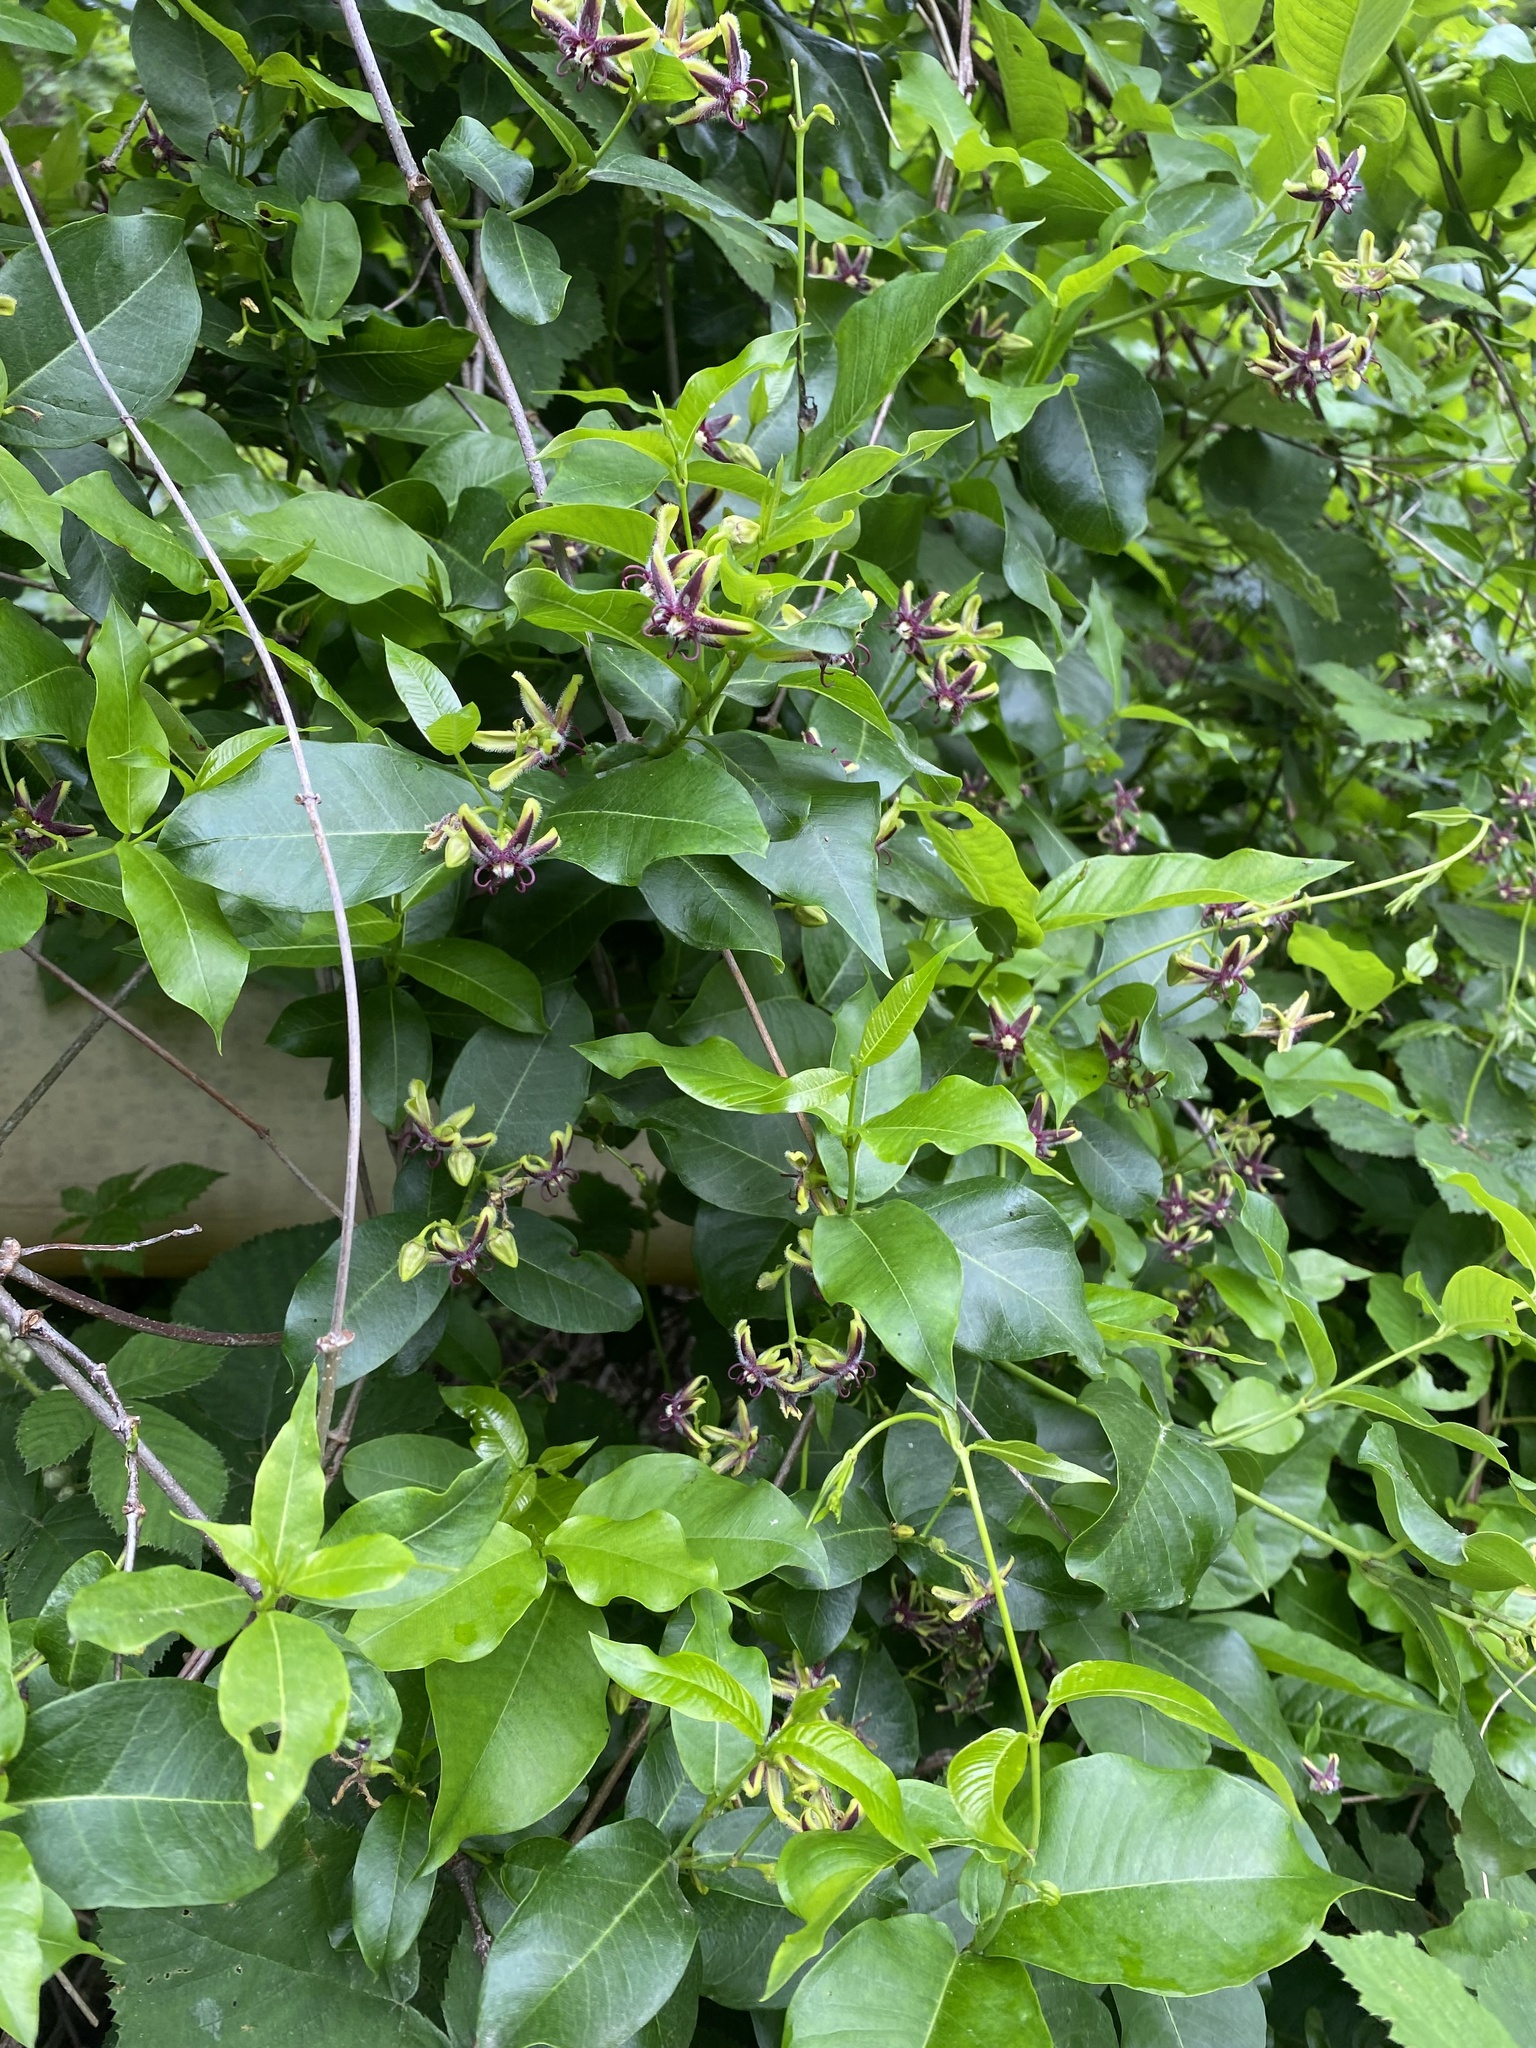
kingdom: Plantae
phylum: Tracheophyta
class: Magnoliopsida
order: Gentianales
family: Apocynaceae
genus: Periploca
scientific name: Periploca graeca
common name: Silkvine
